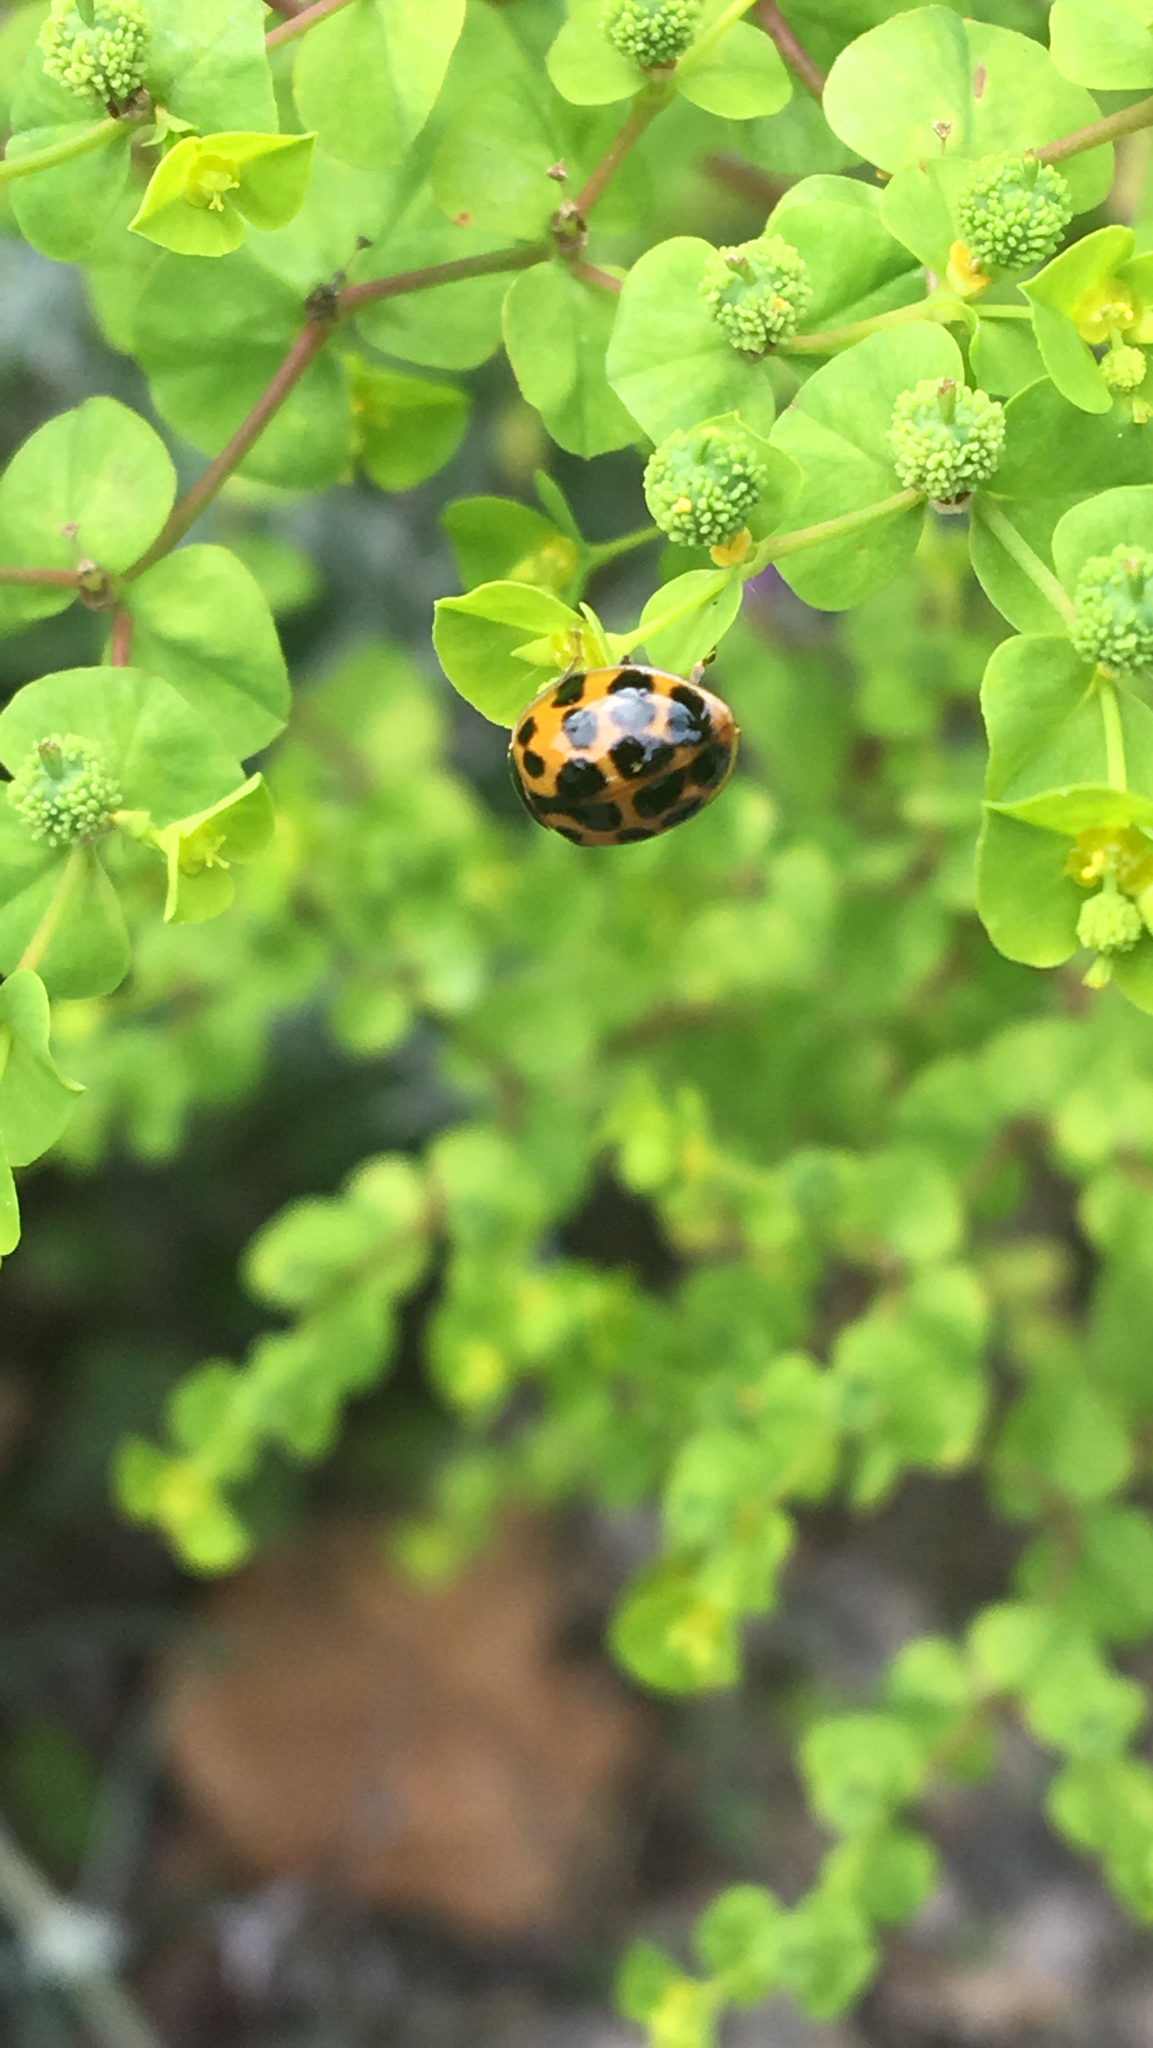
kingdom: Animalia
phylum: Arthropoda
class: Insecta
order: Coleoptera
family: Coccinellidae
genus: Harmonia
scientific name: Harmonia axyridis
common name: Harlequin ladybird
